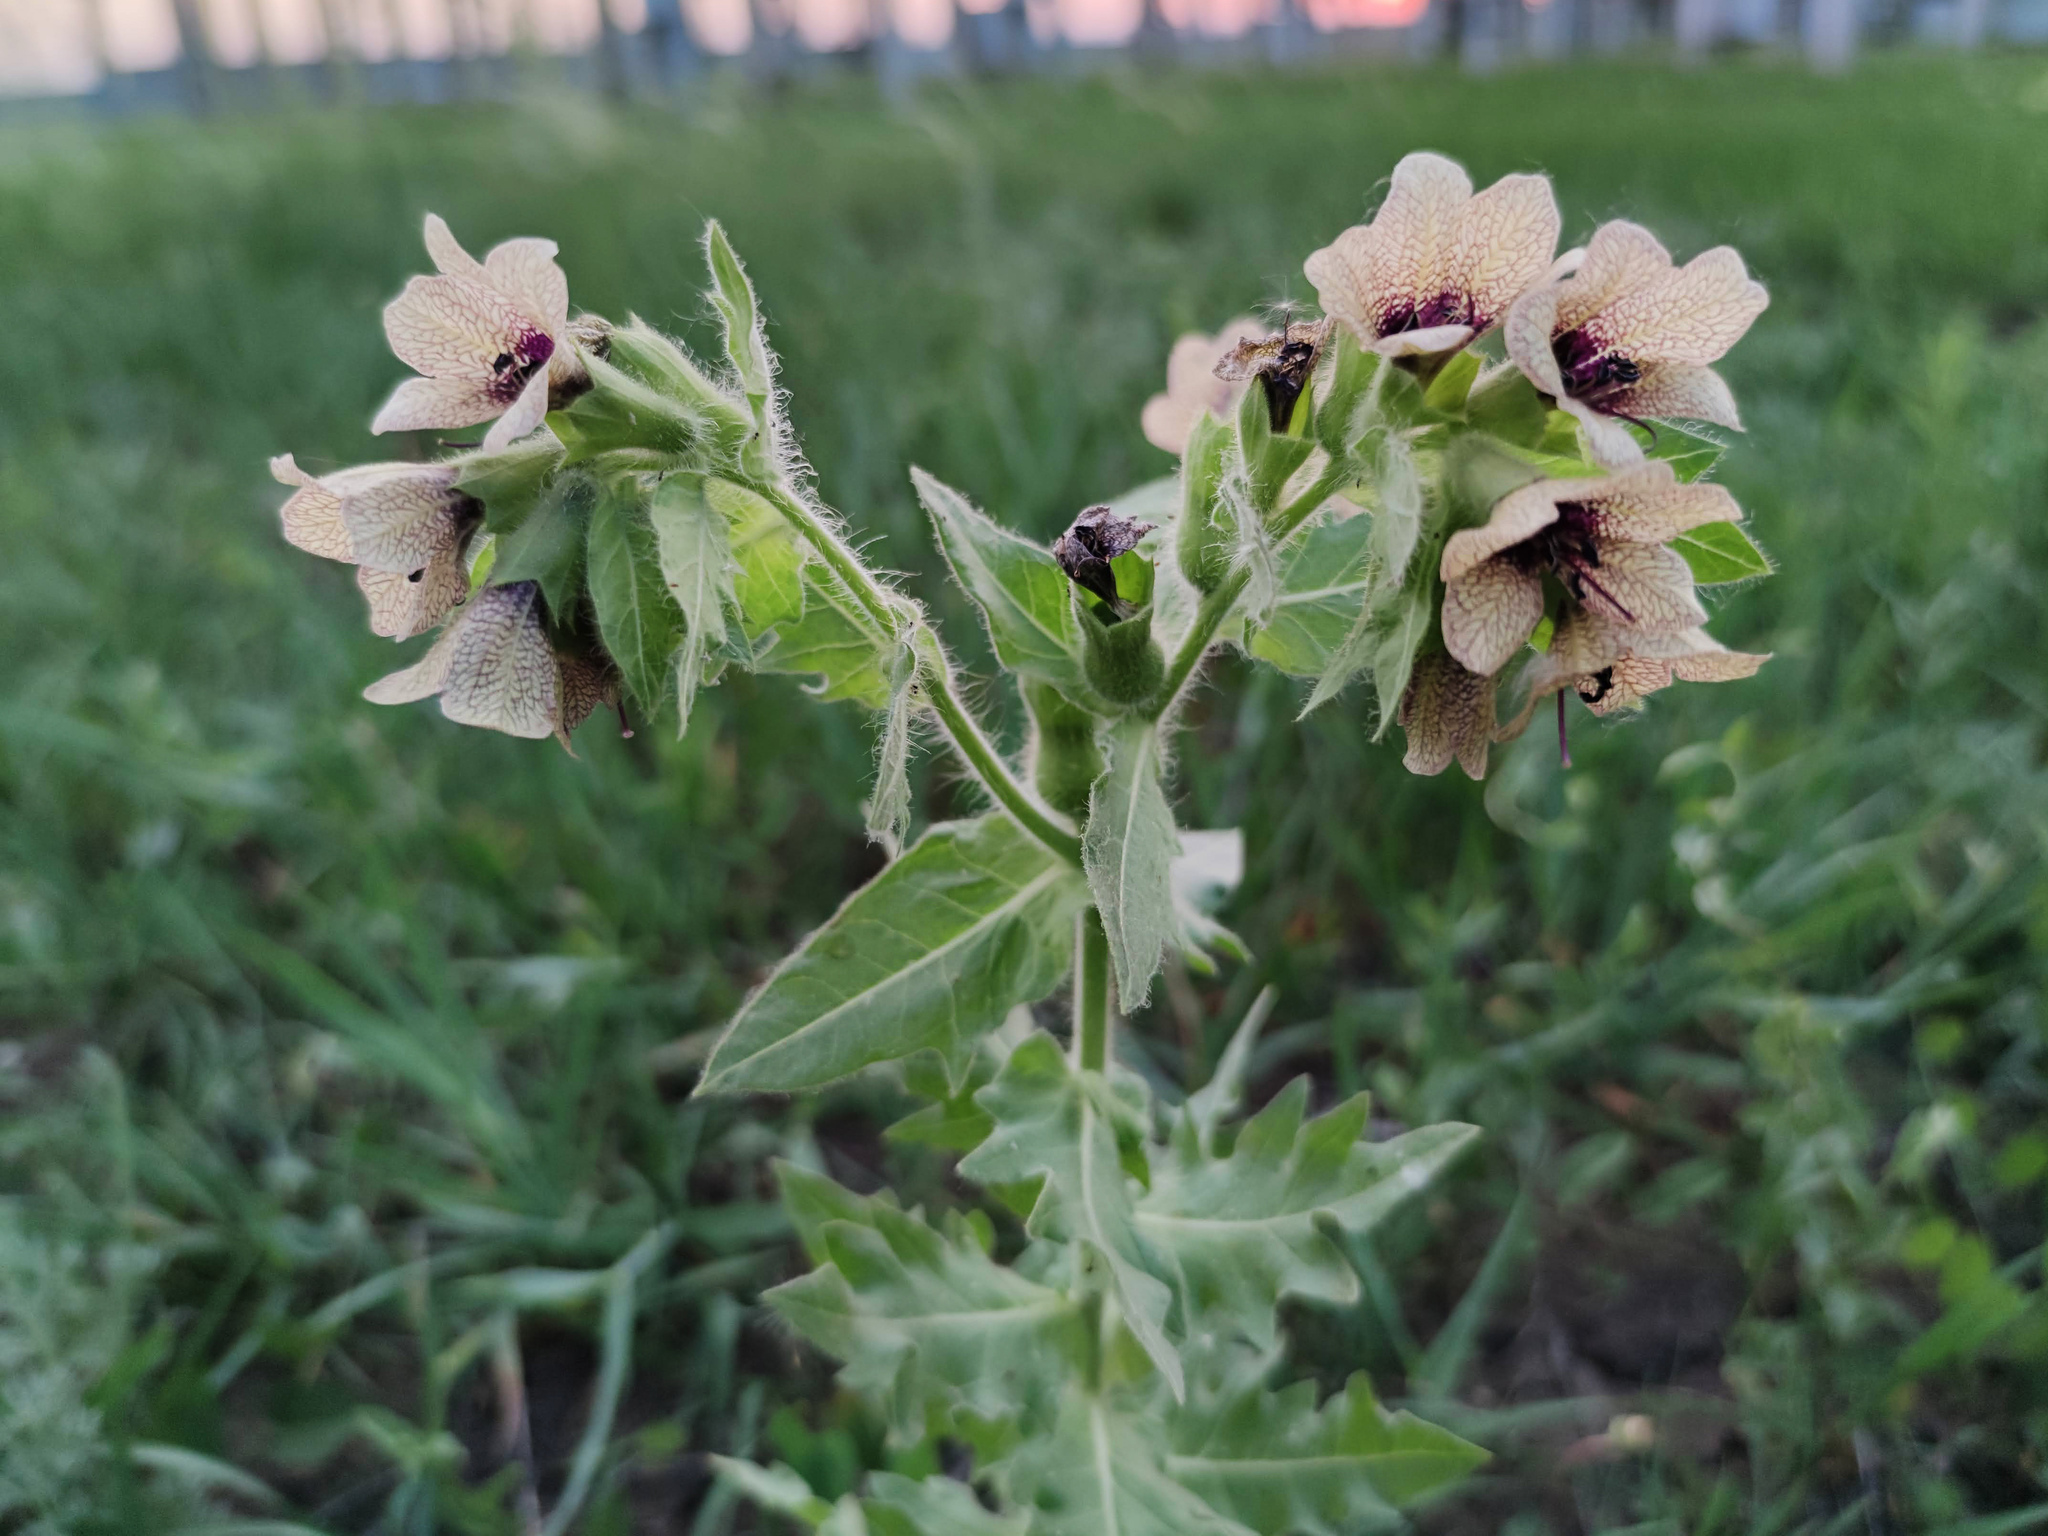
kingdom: Plantae
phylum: Tracheophyta
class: Magnoliopsida
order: Solanales
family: Solanaceae
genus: Hyoscyamus
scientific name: Hyoscyamus niger
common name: Henbane
